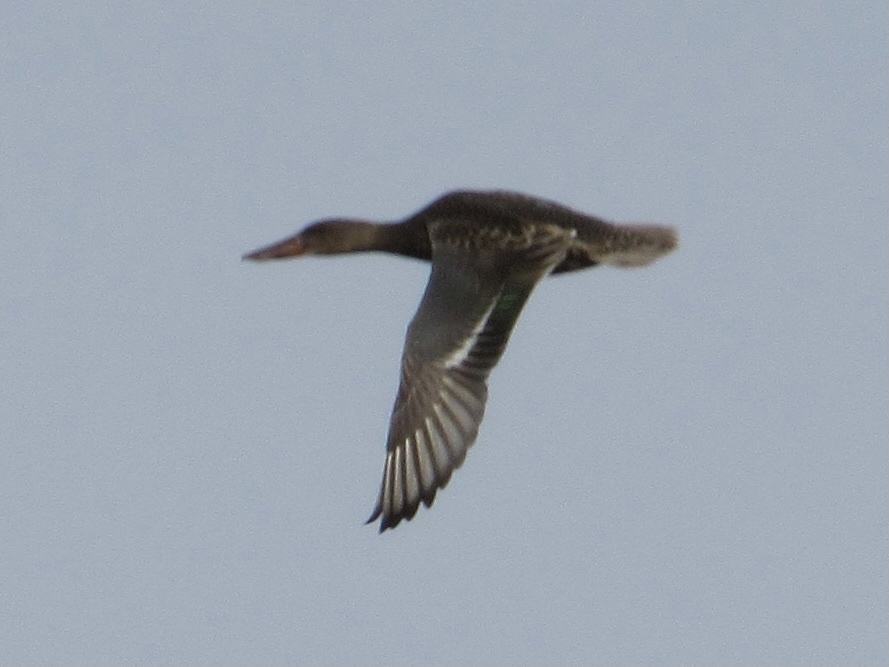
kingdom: Animalia
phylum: Chordata
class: Aves
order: Anseriformes
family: Anatidae
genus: Spatula
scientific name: Spatula clypeata
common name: Northern shoveler
